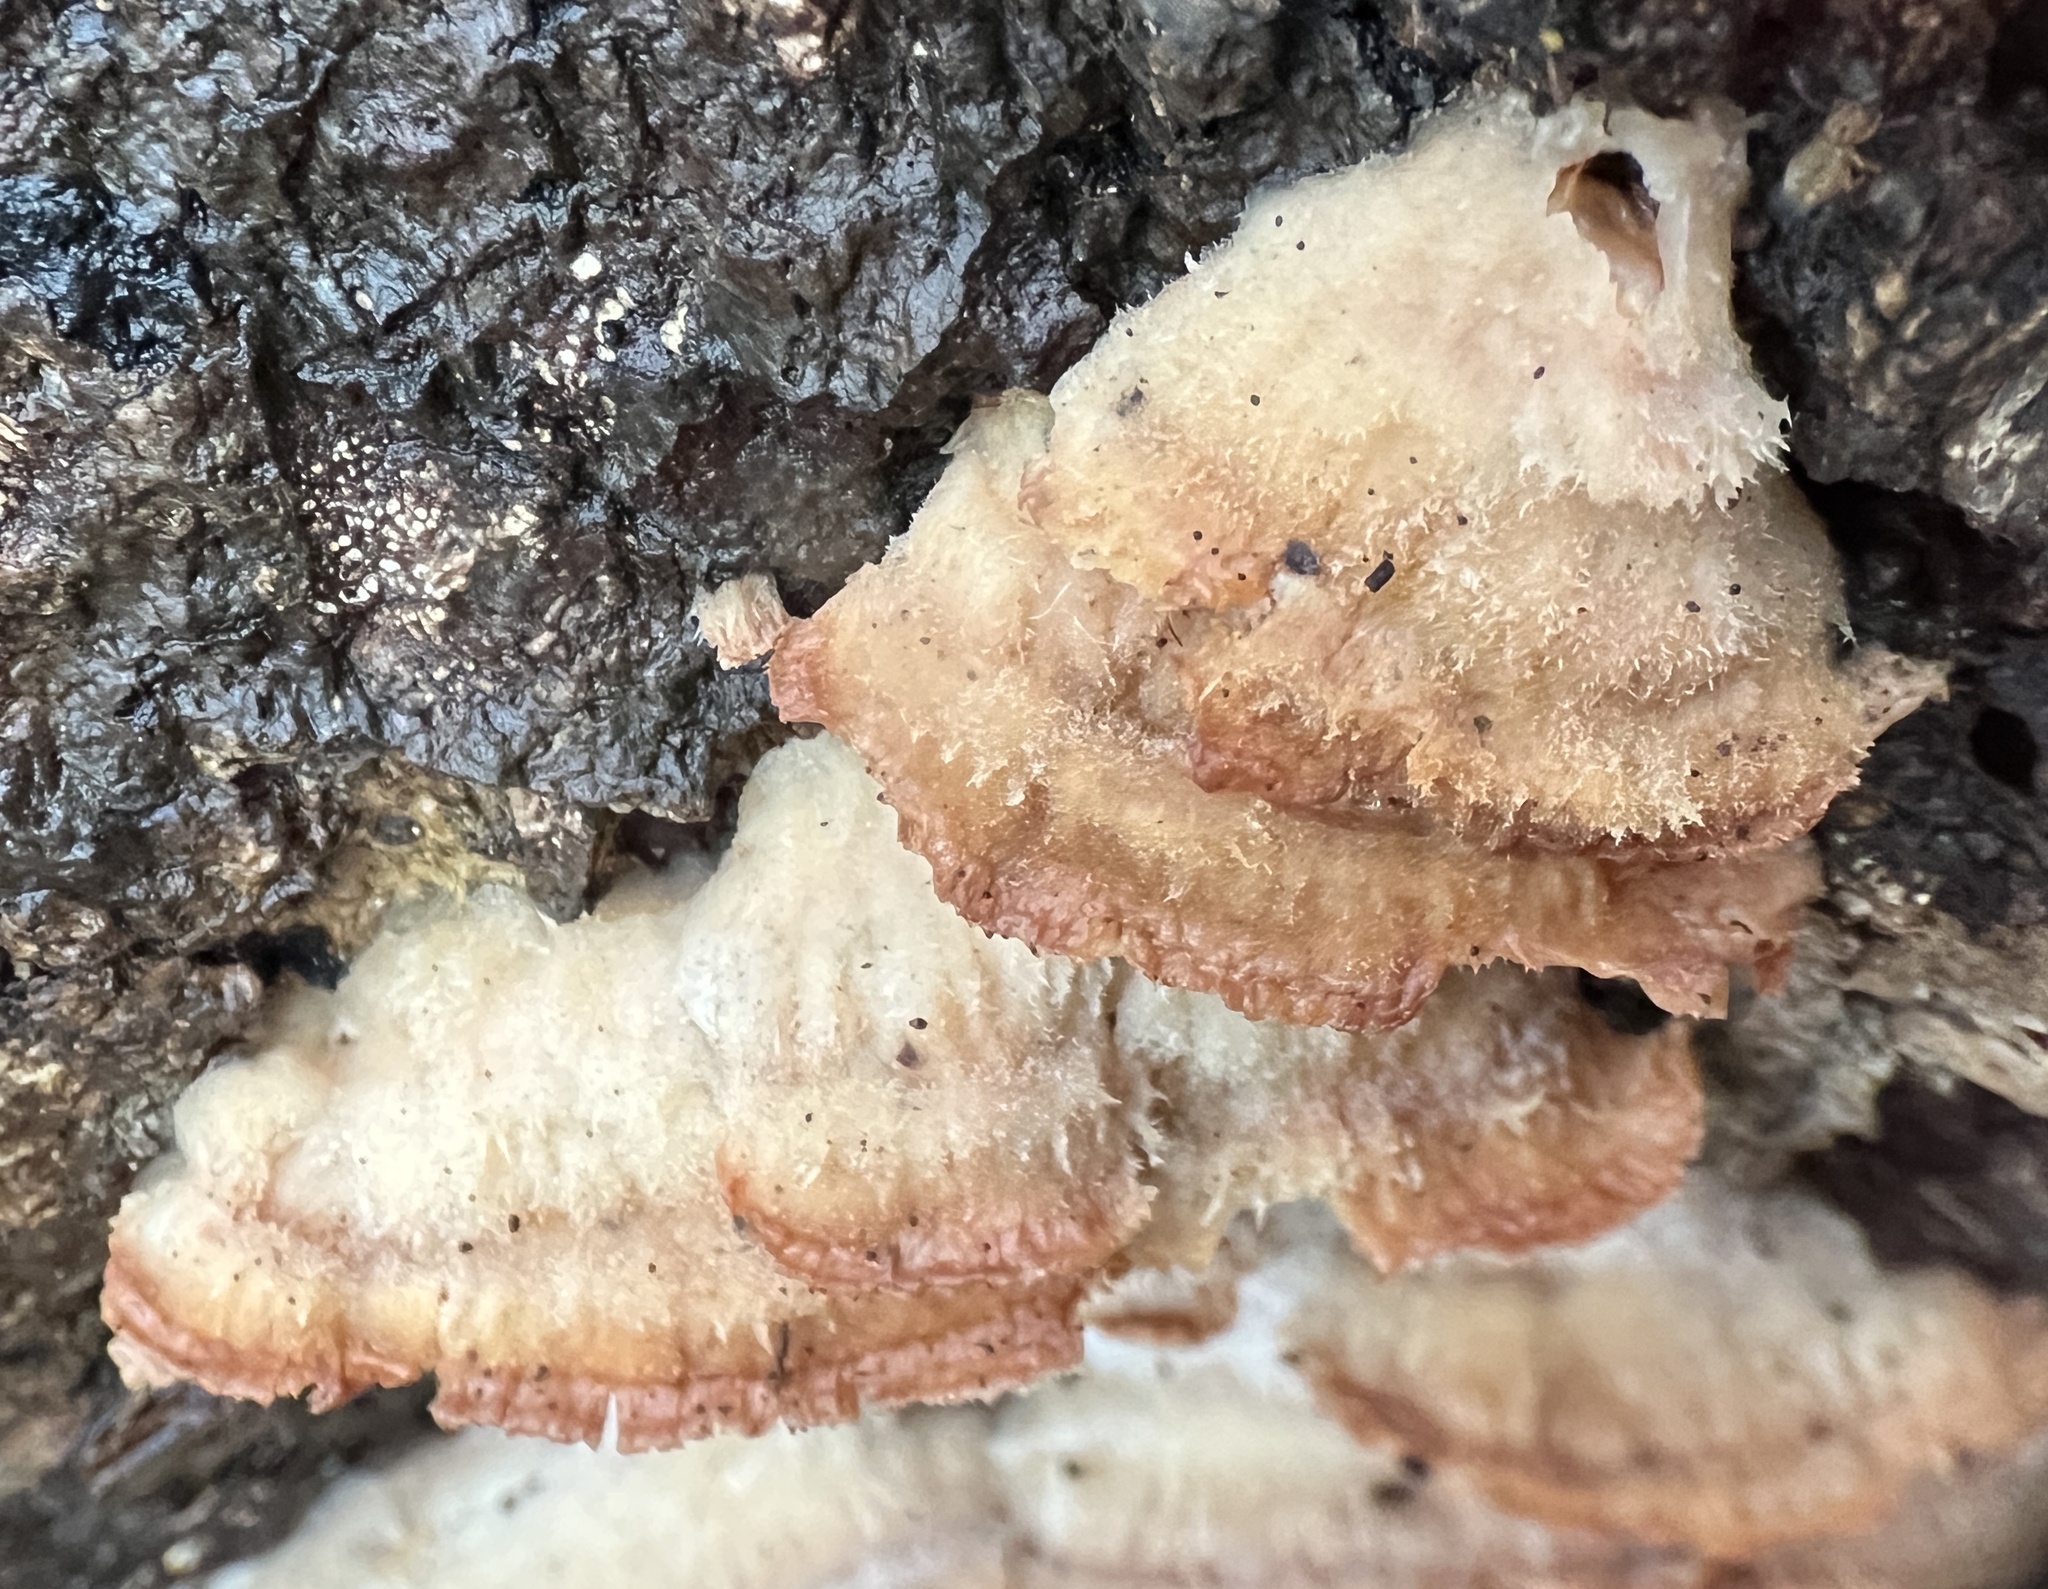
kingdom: Fungi
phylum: Basidiomycota
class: Agaricomycetes
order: Polyporales
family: Meruliaceae
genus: Phlebia
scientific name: Phlebia tremellosa
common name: Jelly rot
